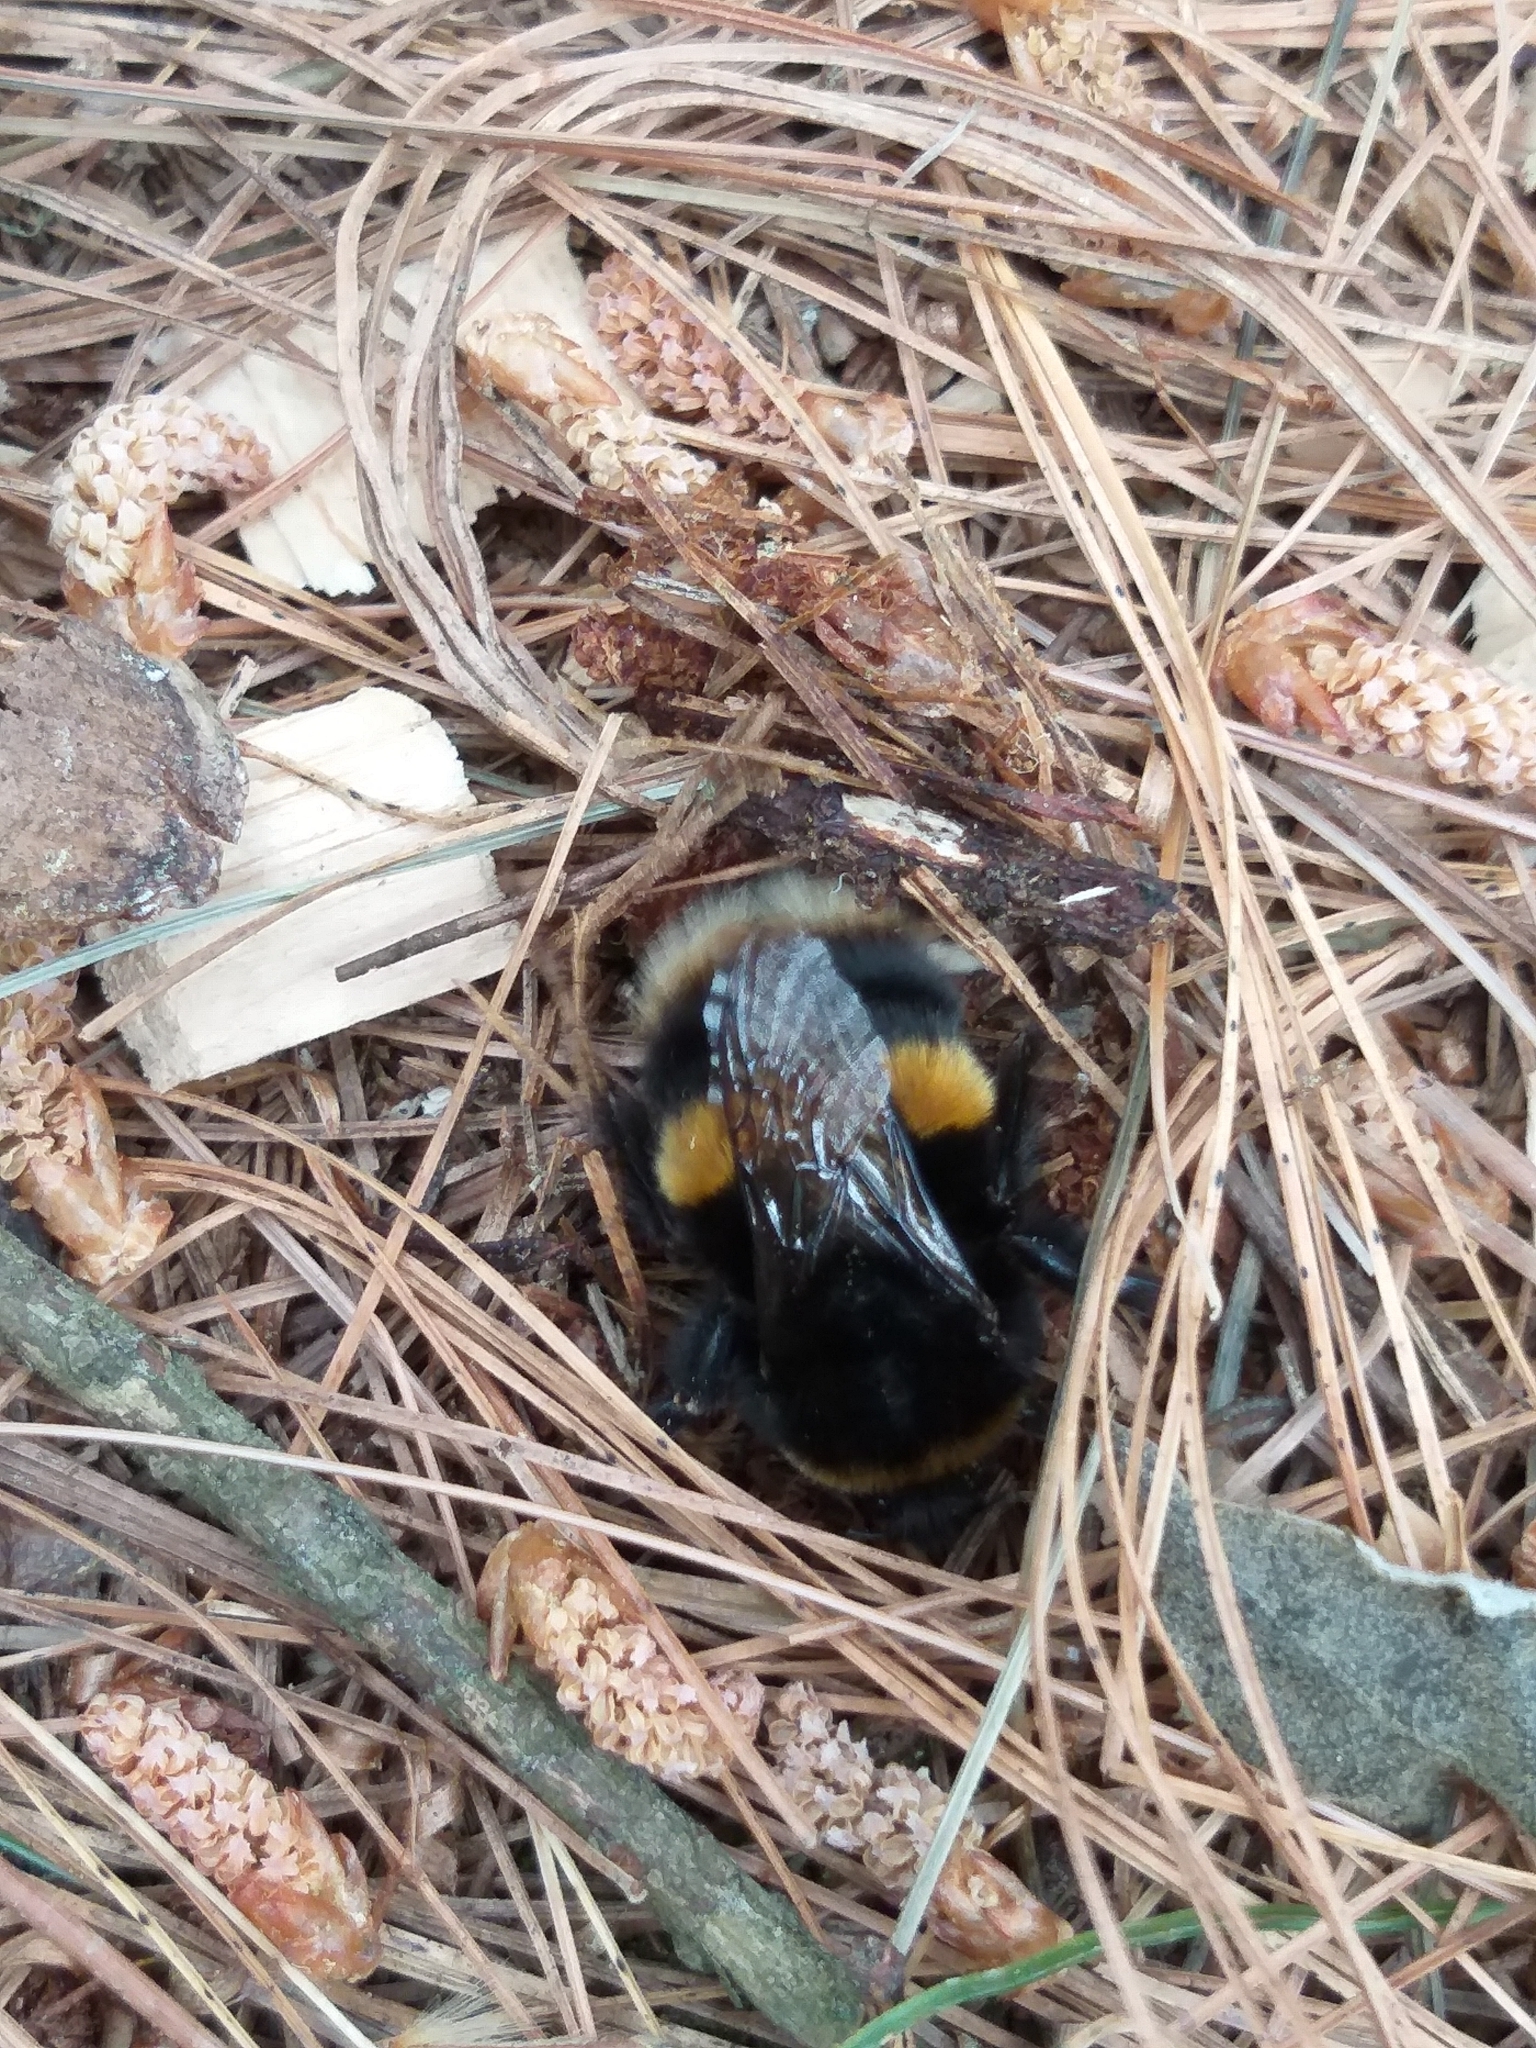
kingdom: Animalia
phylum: Arthropoda
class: Insecta
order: Hymenoptera
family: Apidae
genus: Bombus
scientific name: Bombus terrestris
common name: Buff-tailed bumblebee
